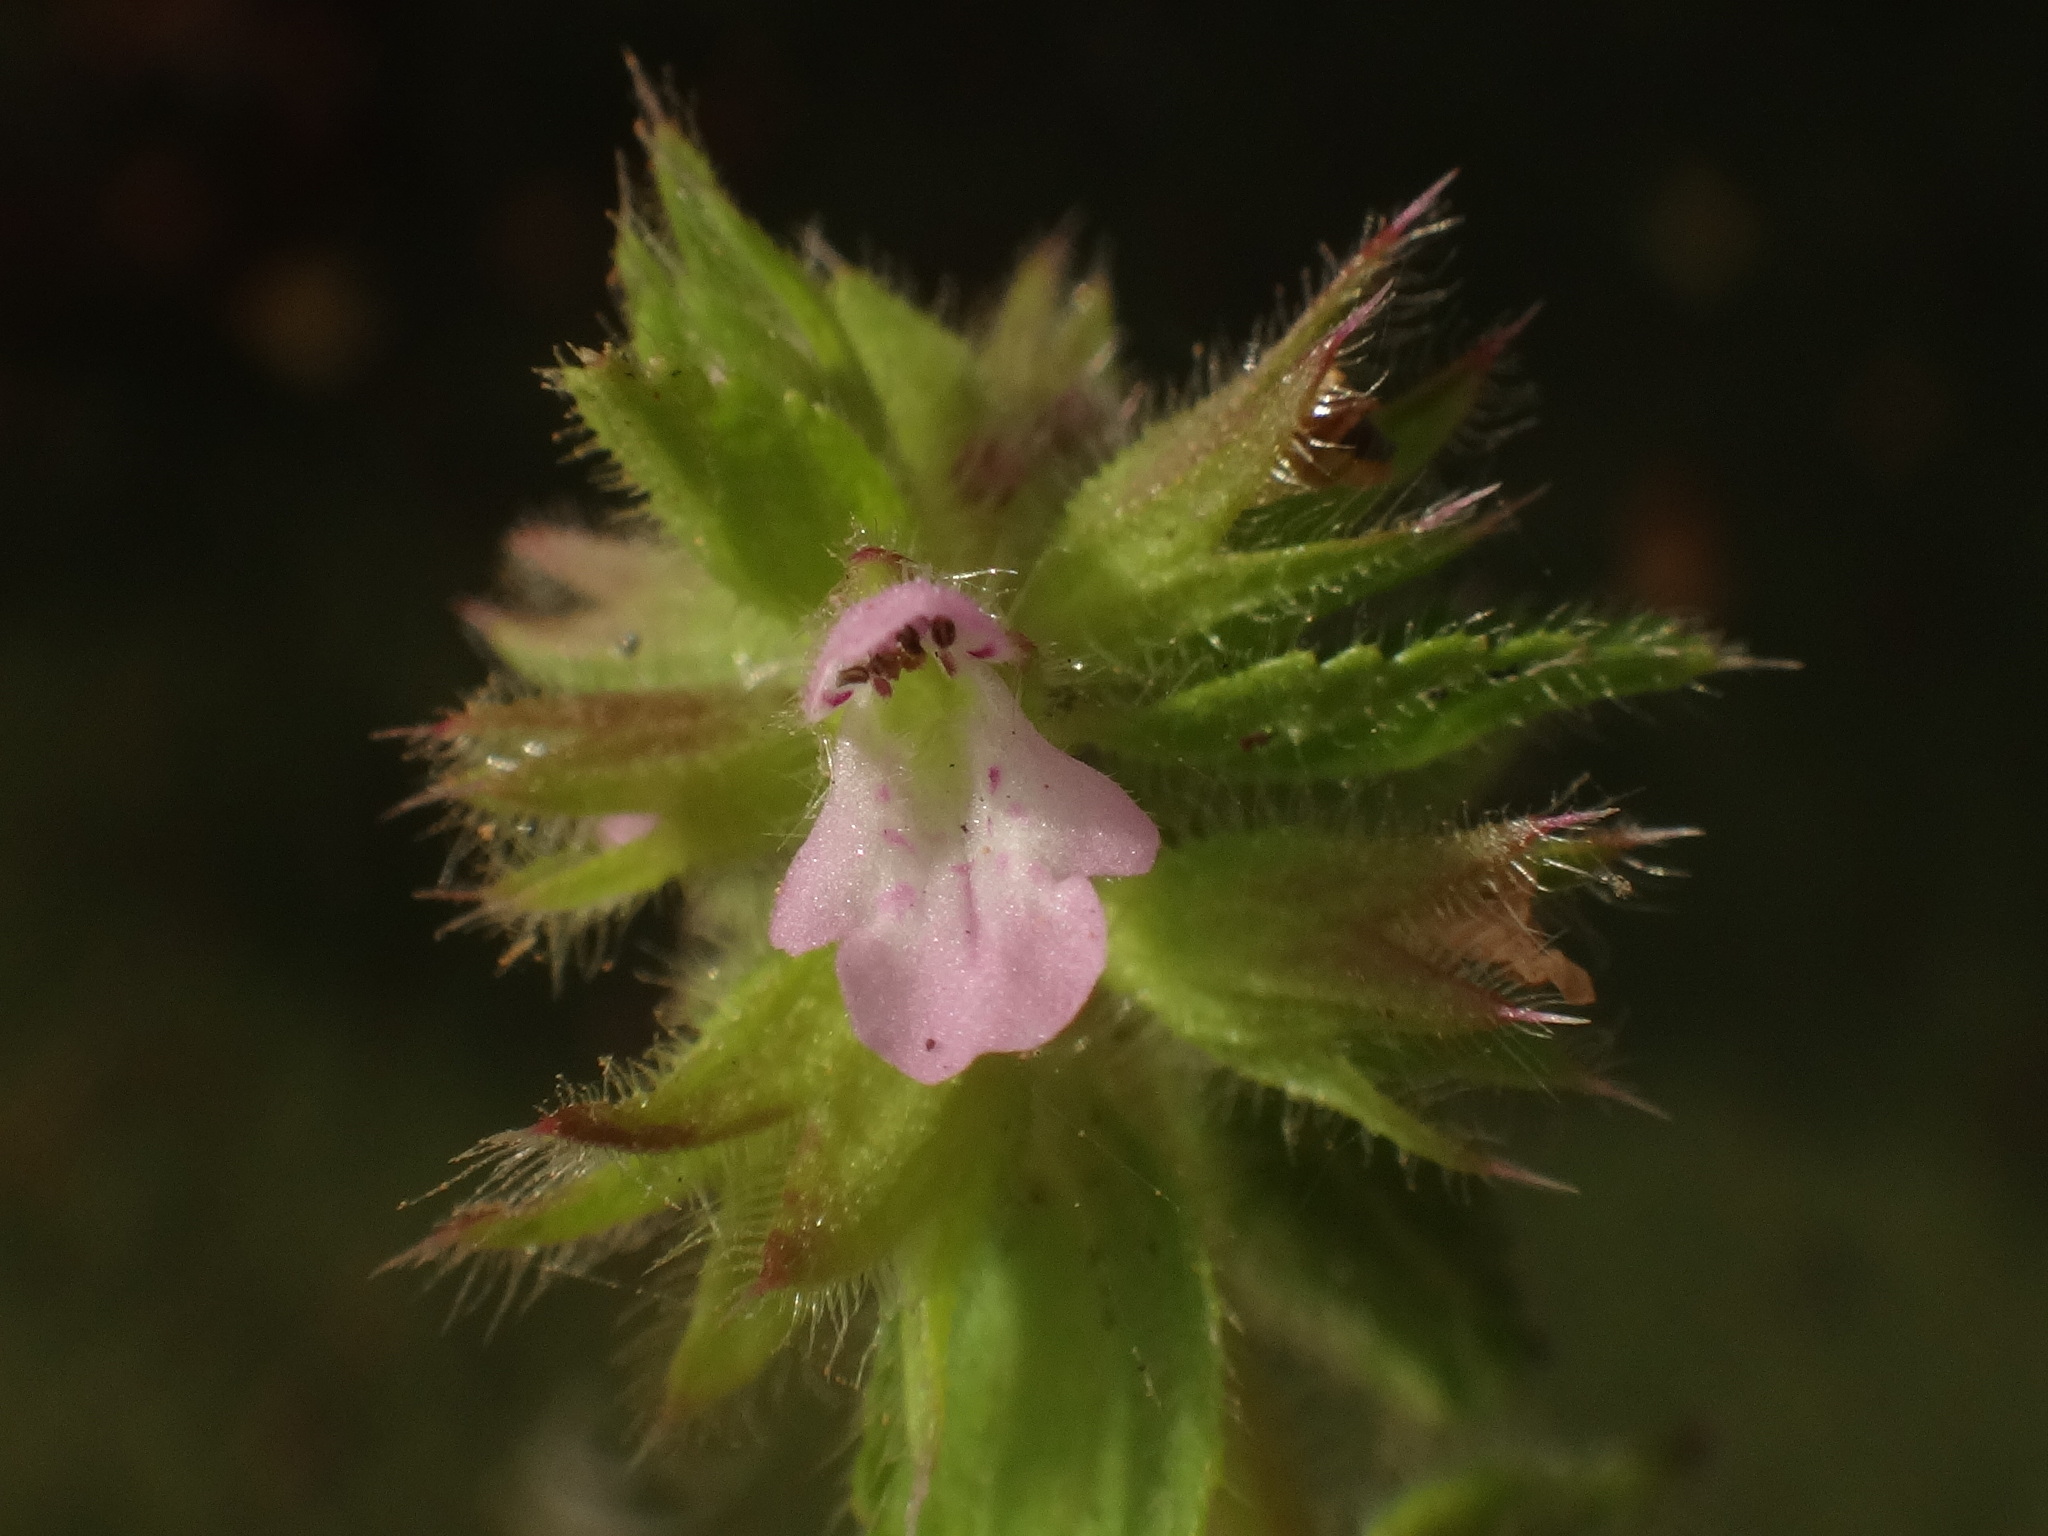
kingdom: Plantae
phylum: Tracheophyta
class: Magnoliopsida
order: Lamiales
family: Lamiaceae
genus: Stachys
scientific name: Stachys arvensis
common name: Field woundwort
